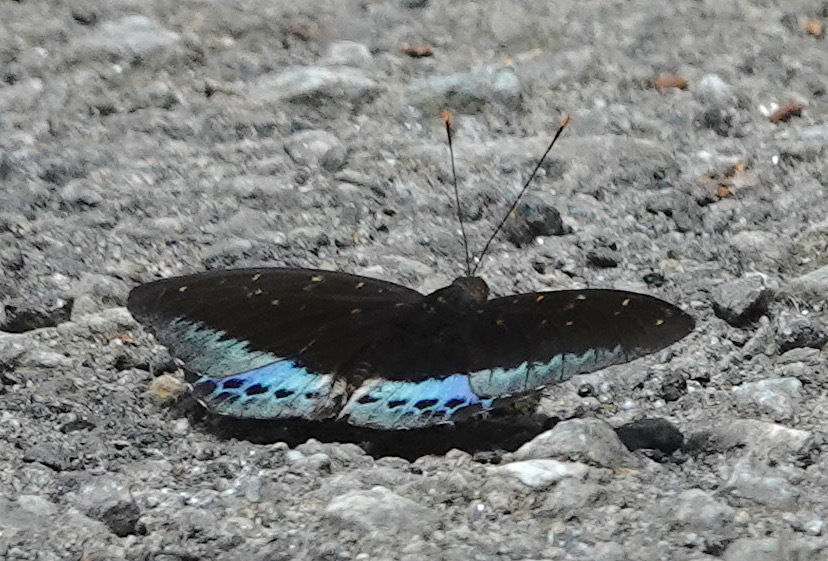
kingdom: Animalia
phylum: Arthropoda
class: Insecta
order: Lepidoptera
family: Nymphalidae
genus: Lexias
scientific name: Lexias pardalis
